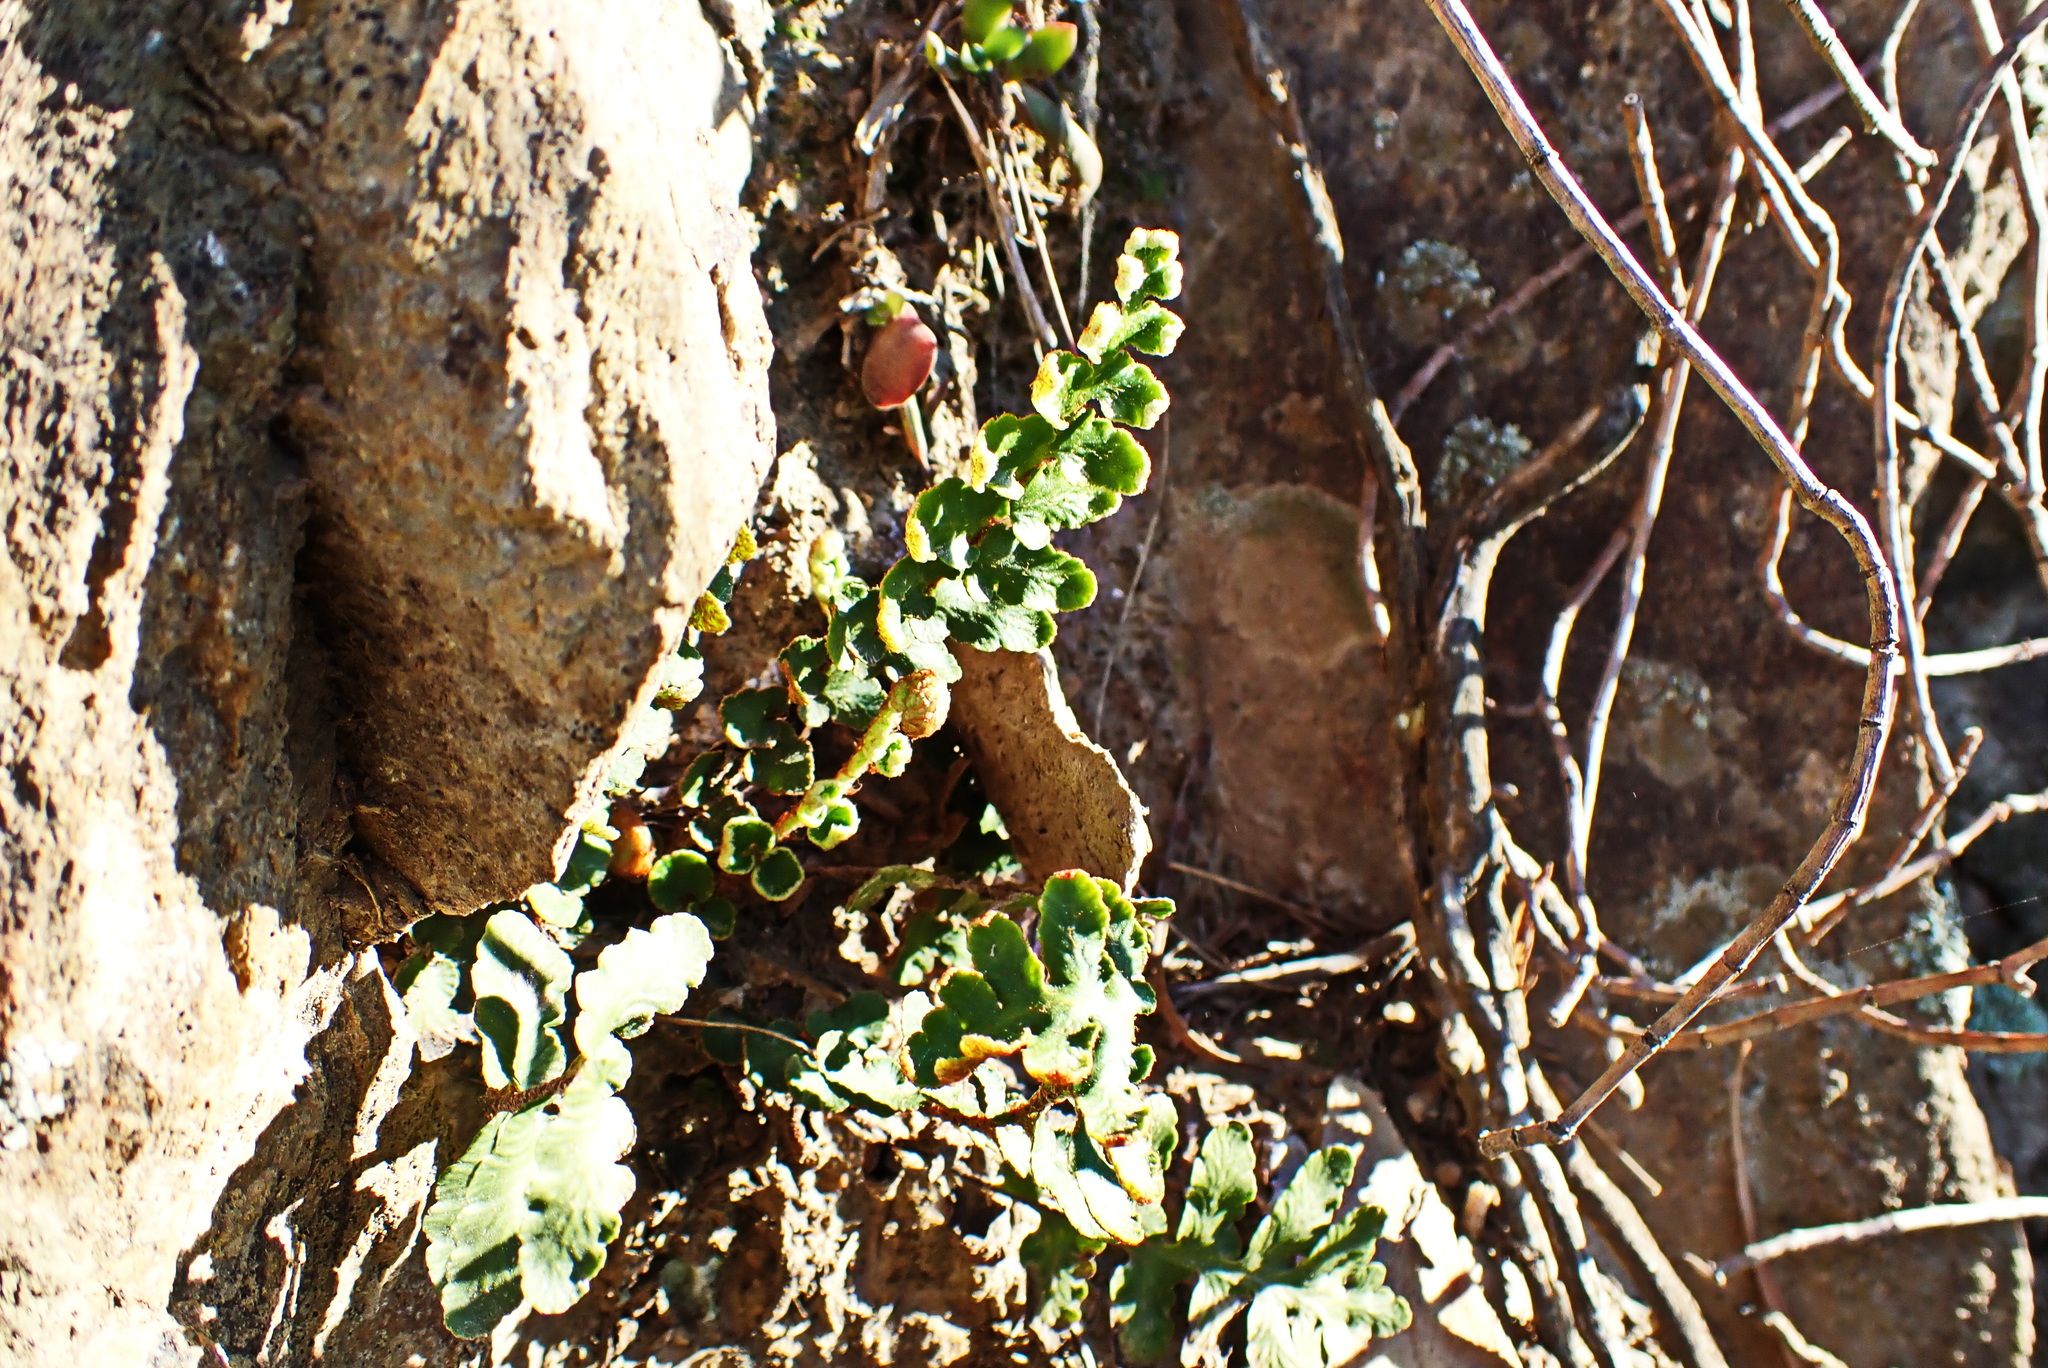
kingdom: Plantae
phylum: Tracheophyta
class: Polypodiopsida
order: Polypodiales
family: Aspleniaceae
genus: Asplenium
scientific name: Asplenium capense
